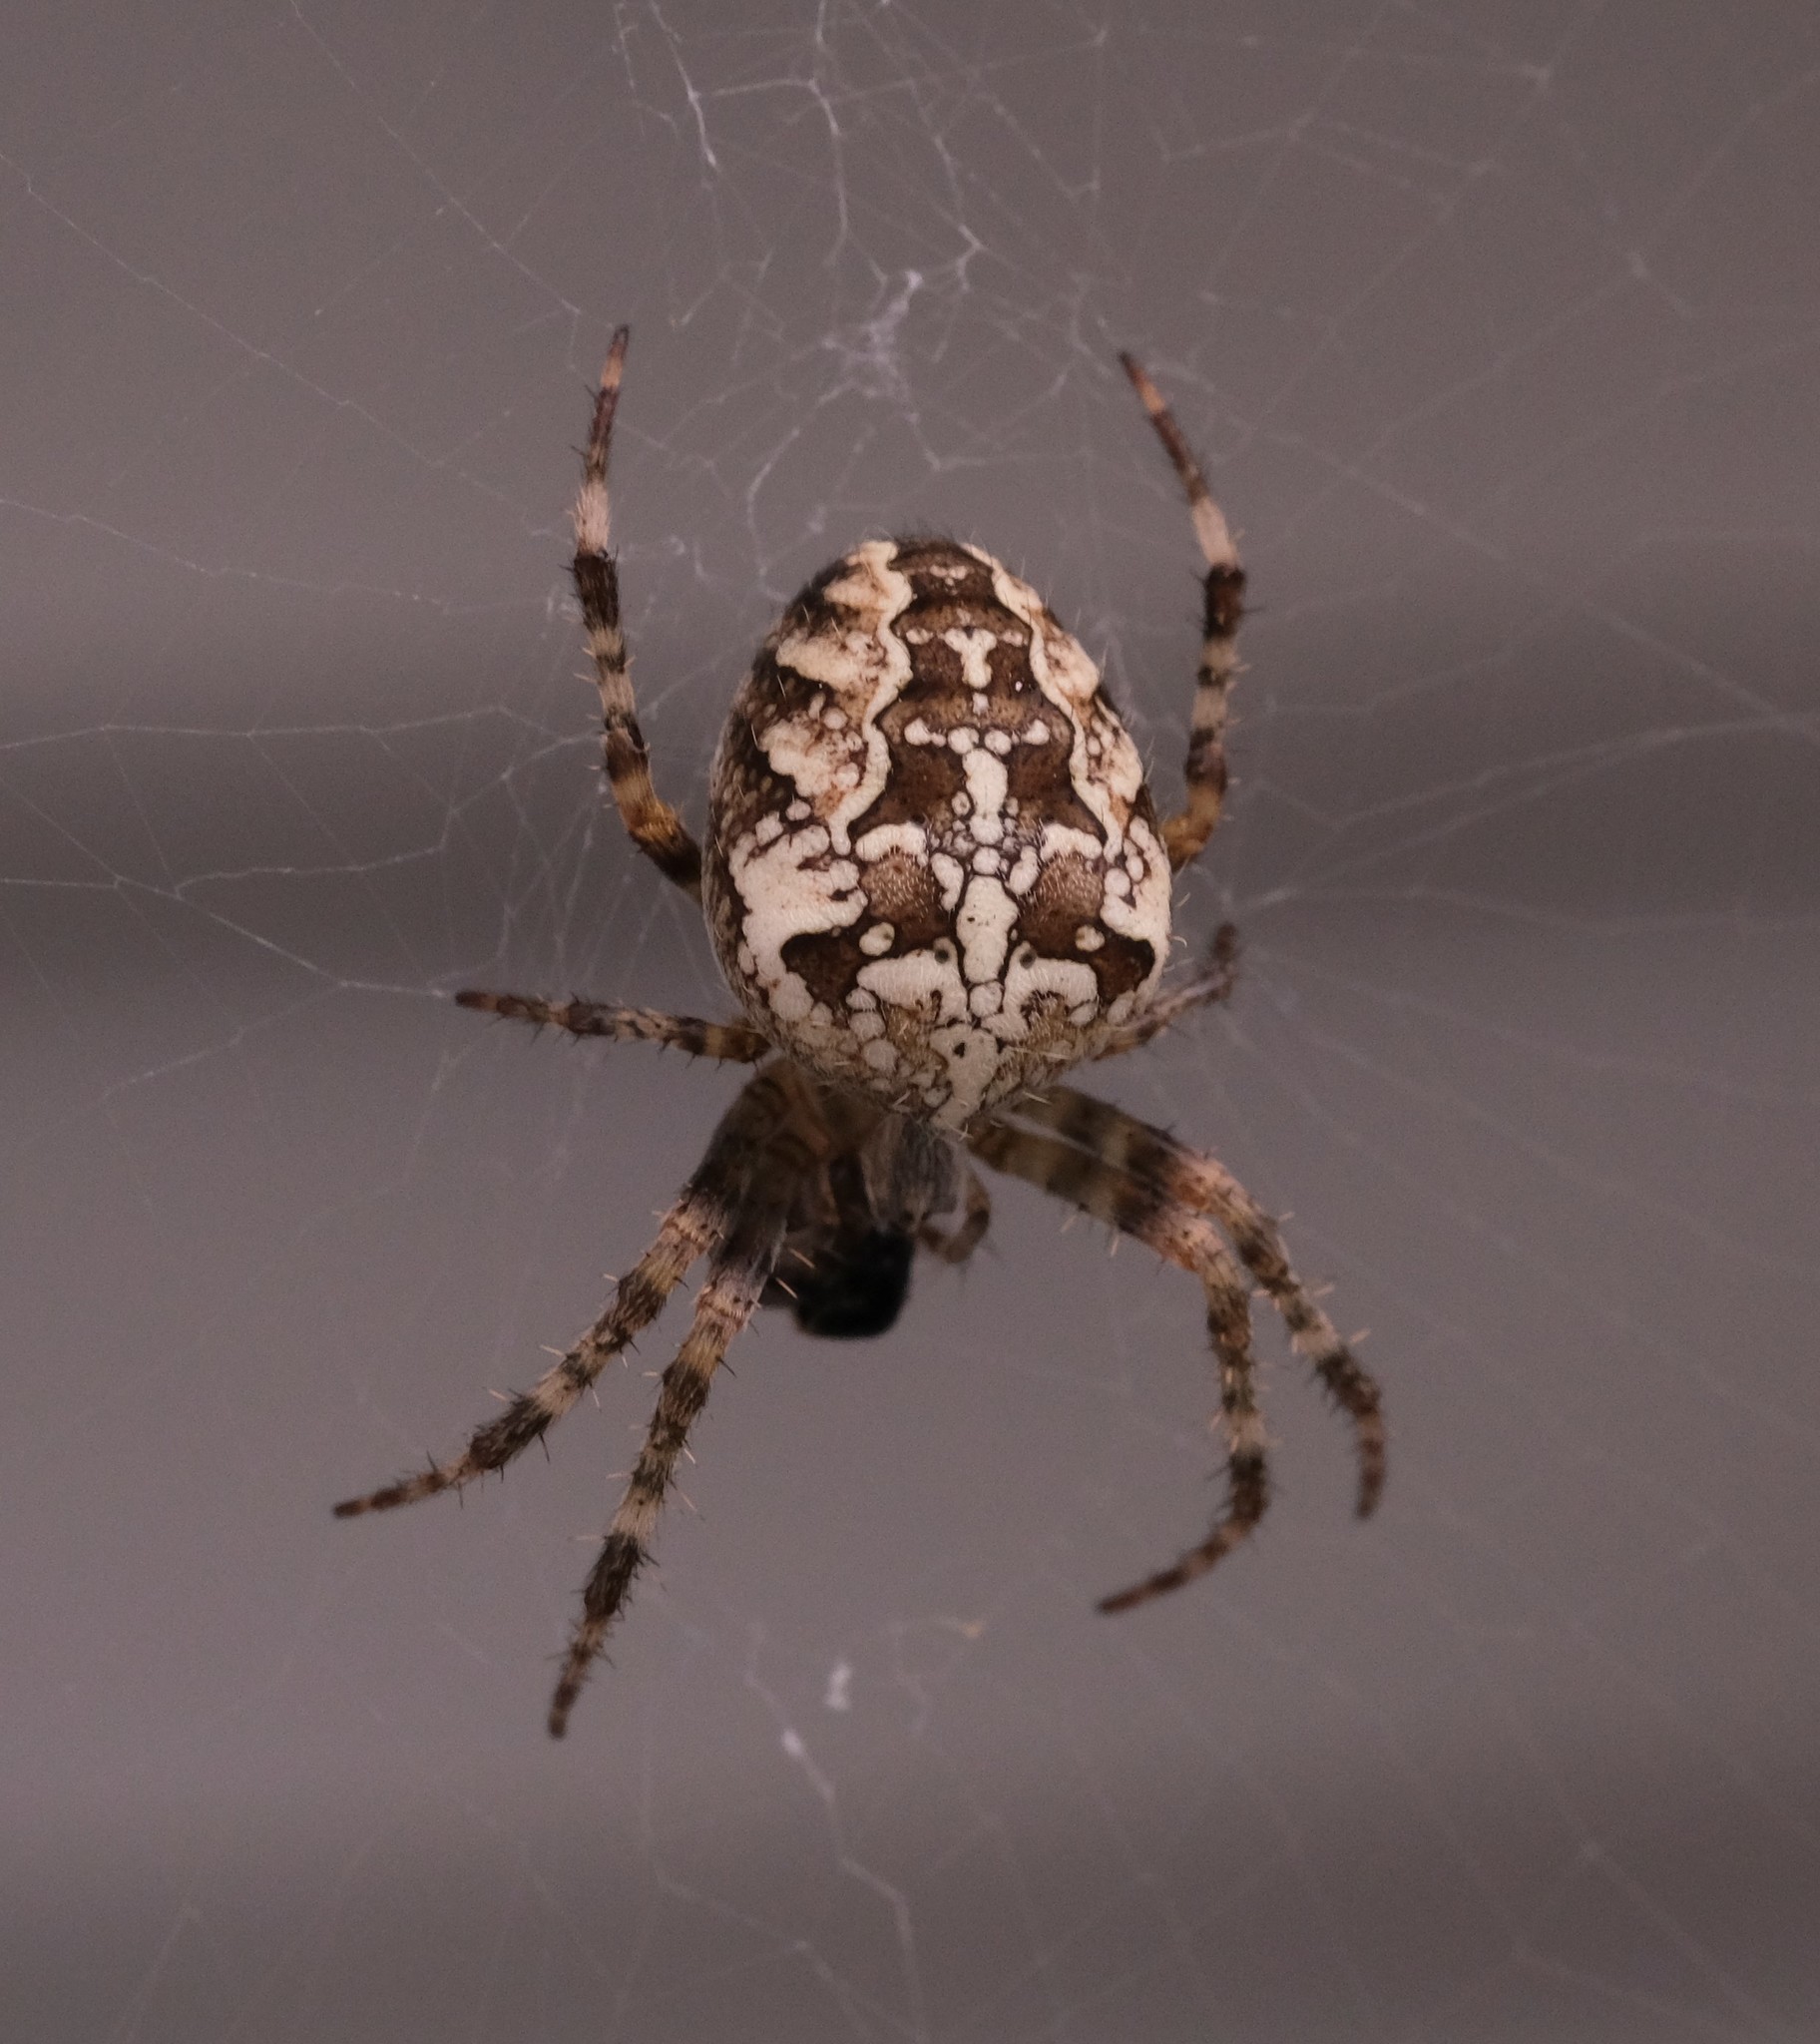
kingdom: Animalia
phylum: Arthropoda
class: Arachnida
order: Araneae
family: Araneidae
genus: Araneus
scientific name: Araneus diadematus
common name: Cross orbweaver
